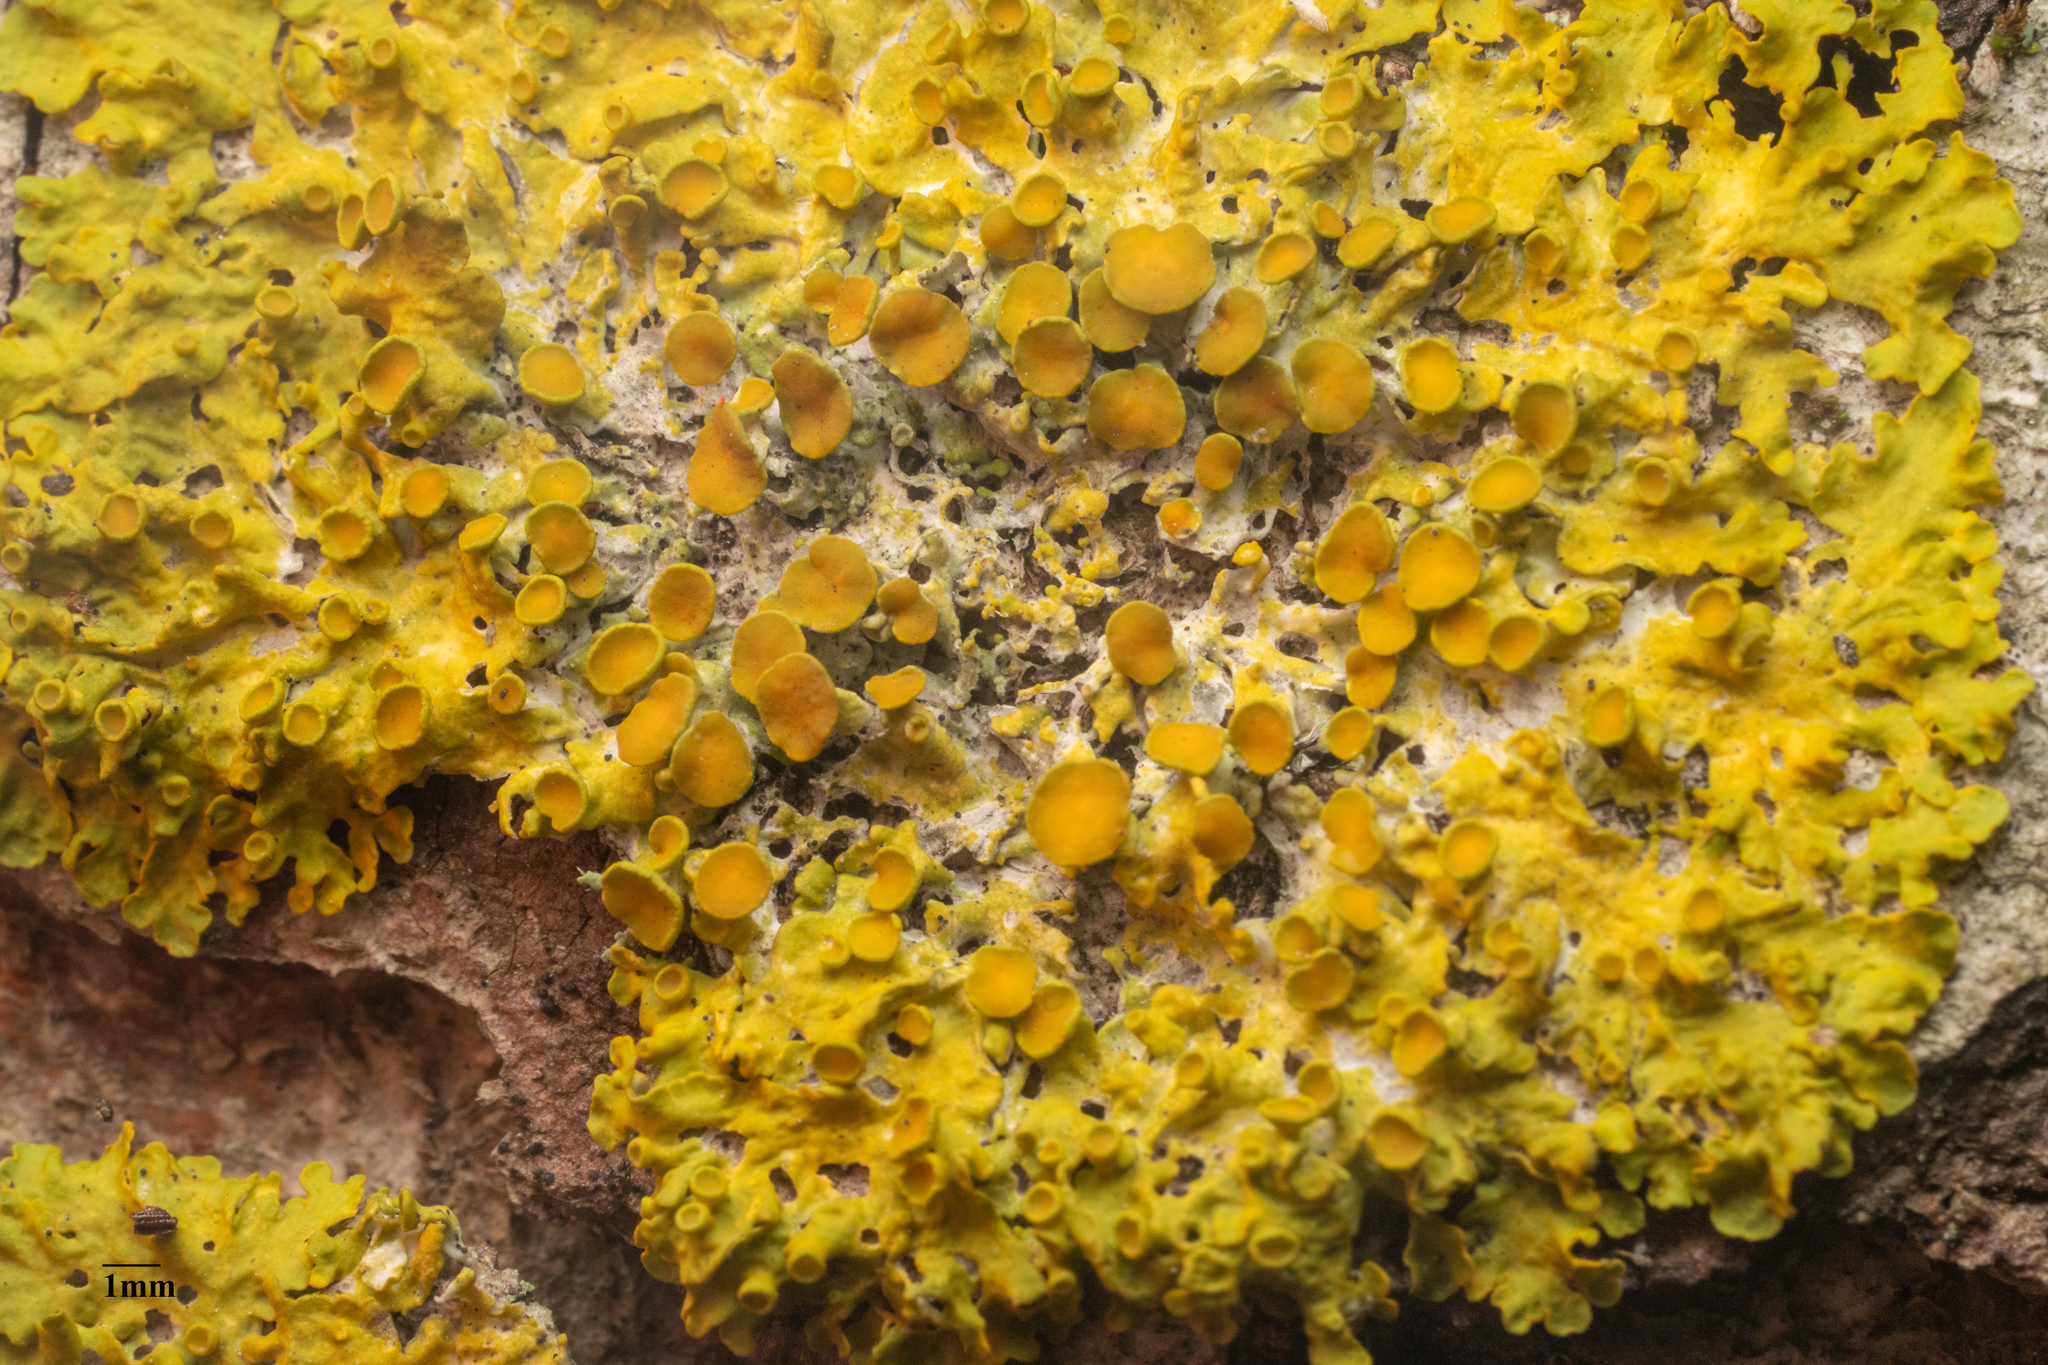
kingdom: Fungi
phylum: Ascomycota
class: Lecanoromycetes
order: Teloschistales
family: Teloschistaceae
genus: Xanthoria
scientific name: Xanthoria parietina
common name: Common orange lichen
